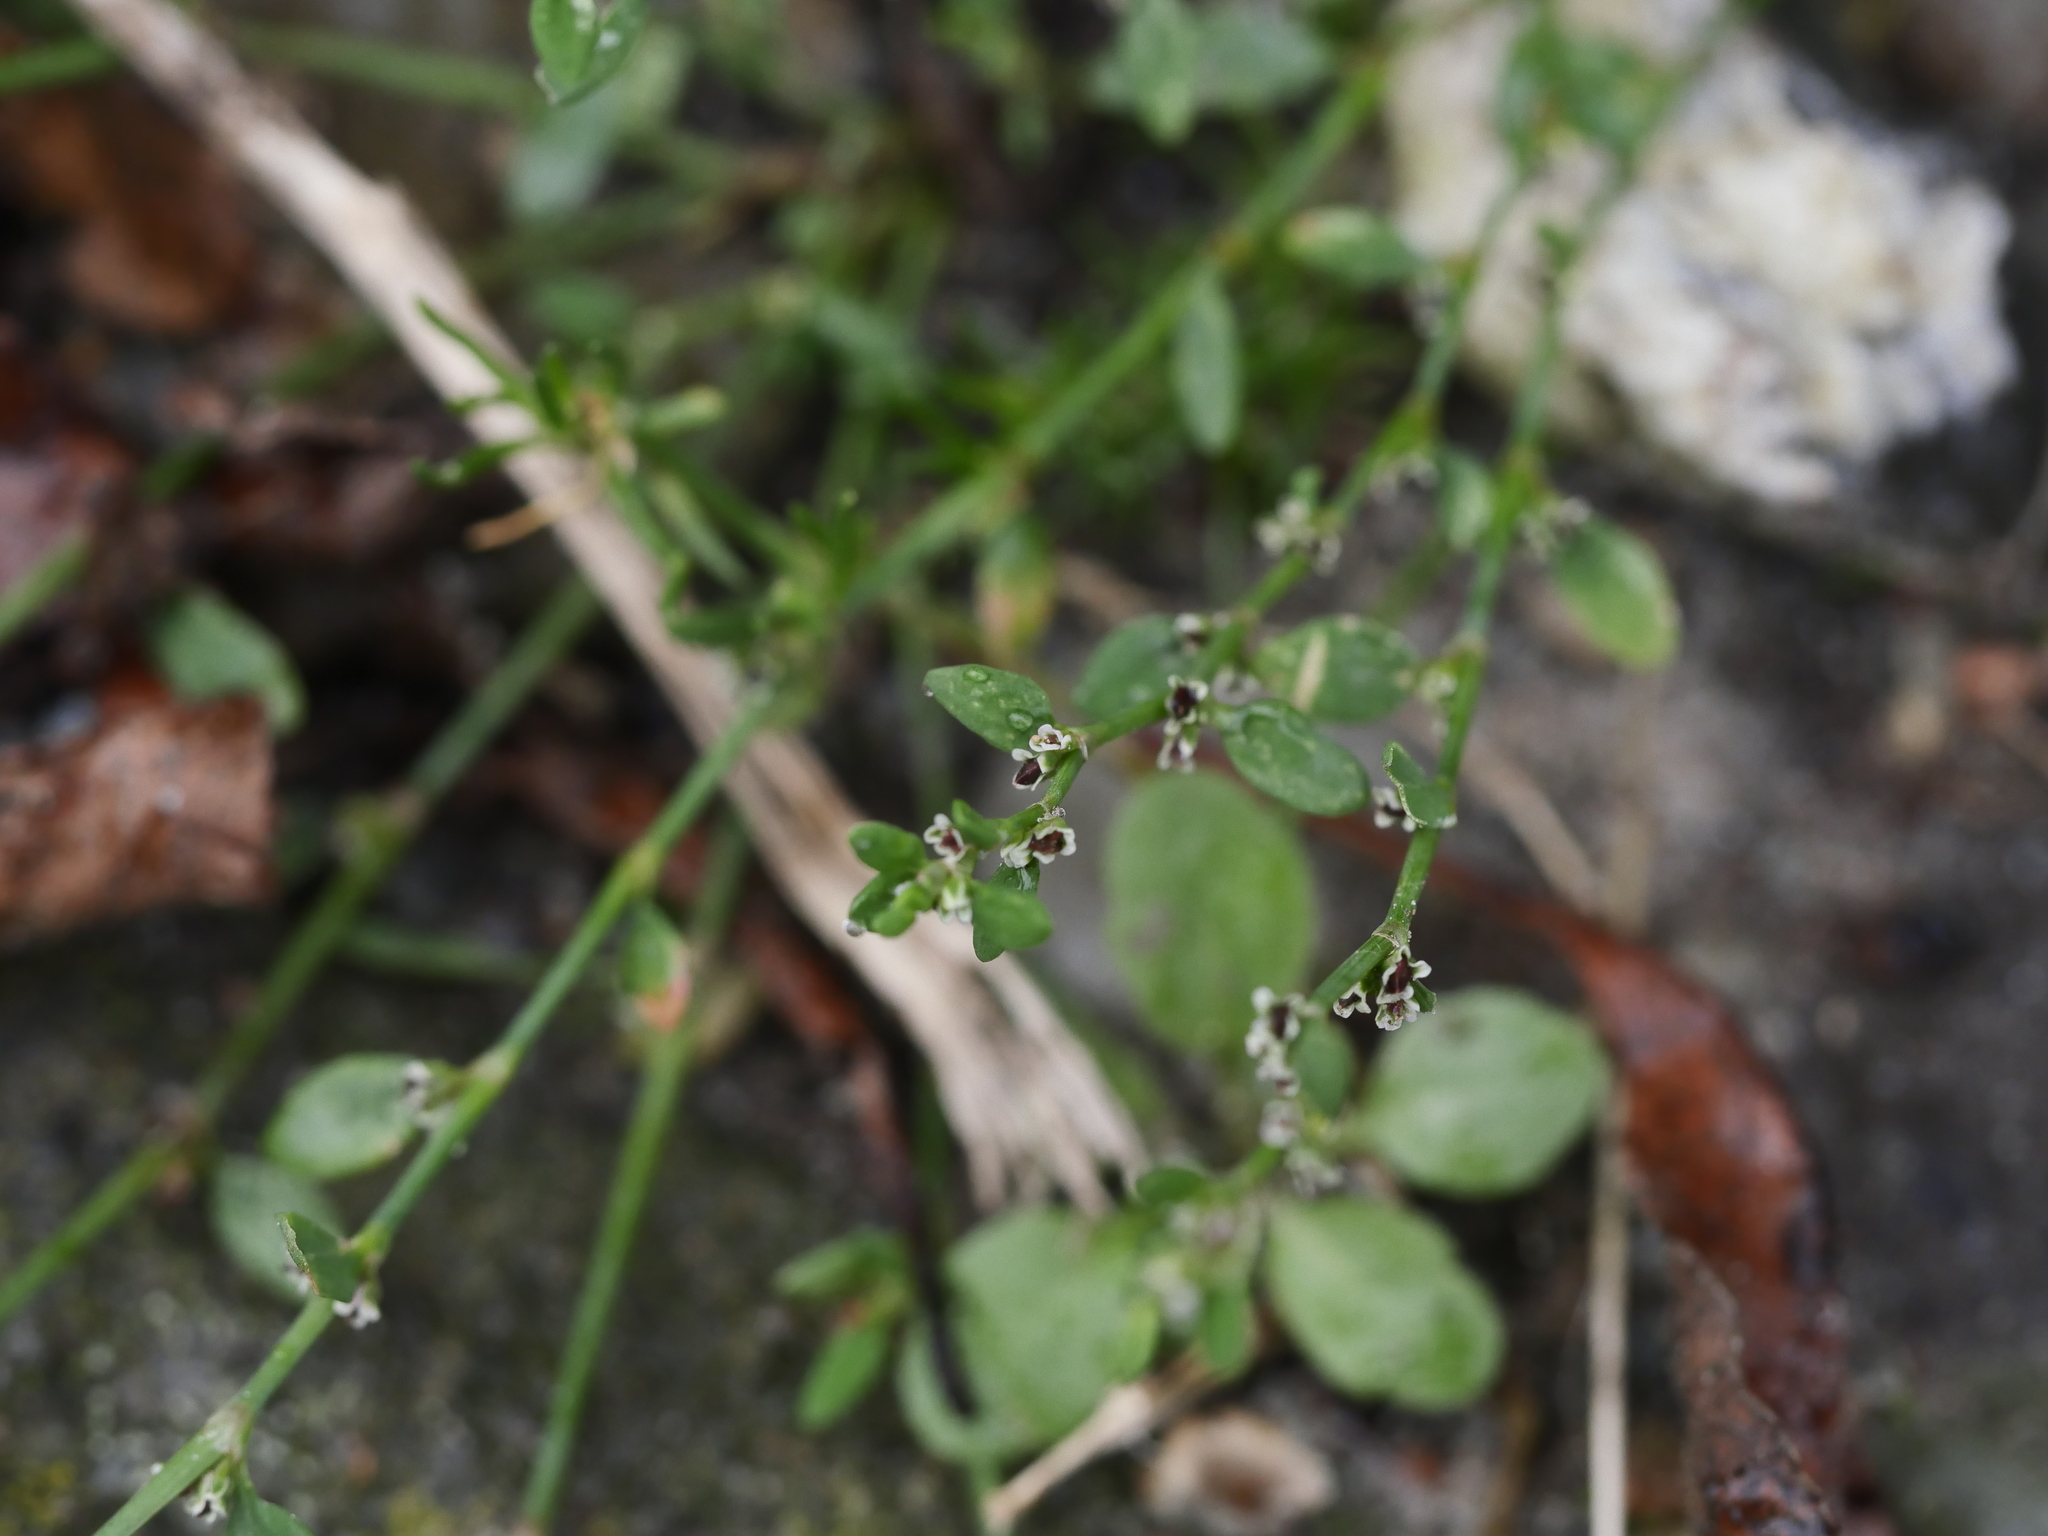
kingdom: Plantae
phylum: Tracheophyta
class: Magnoliopsida
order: Caryophyllales
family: Polygonaceae
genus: Polygonum
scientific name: Polygonum aviculare
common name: Prostrate knotweed
